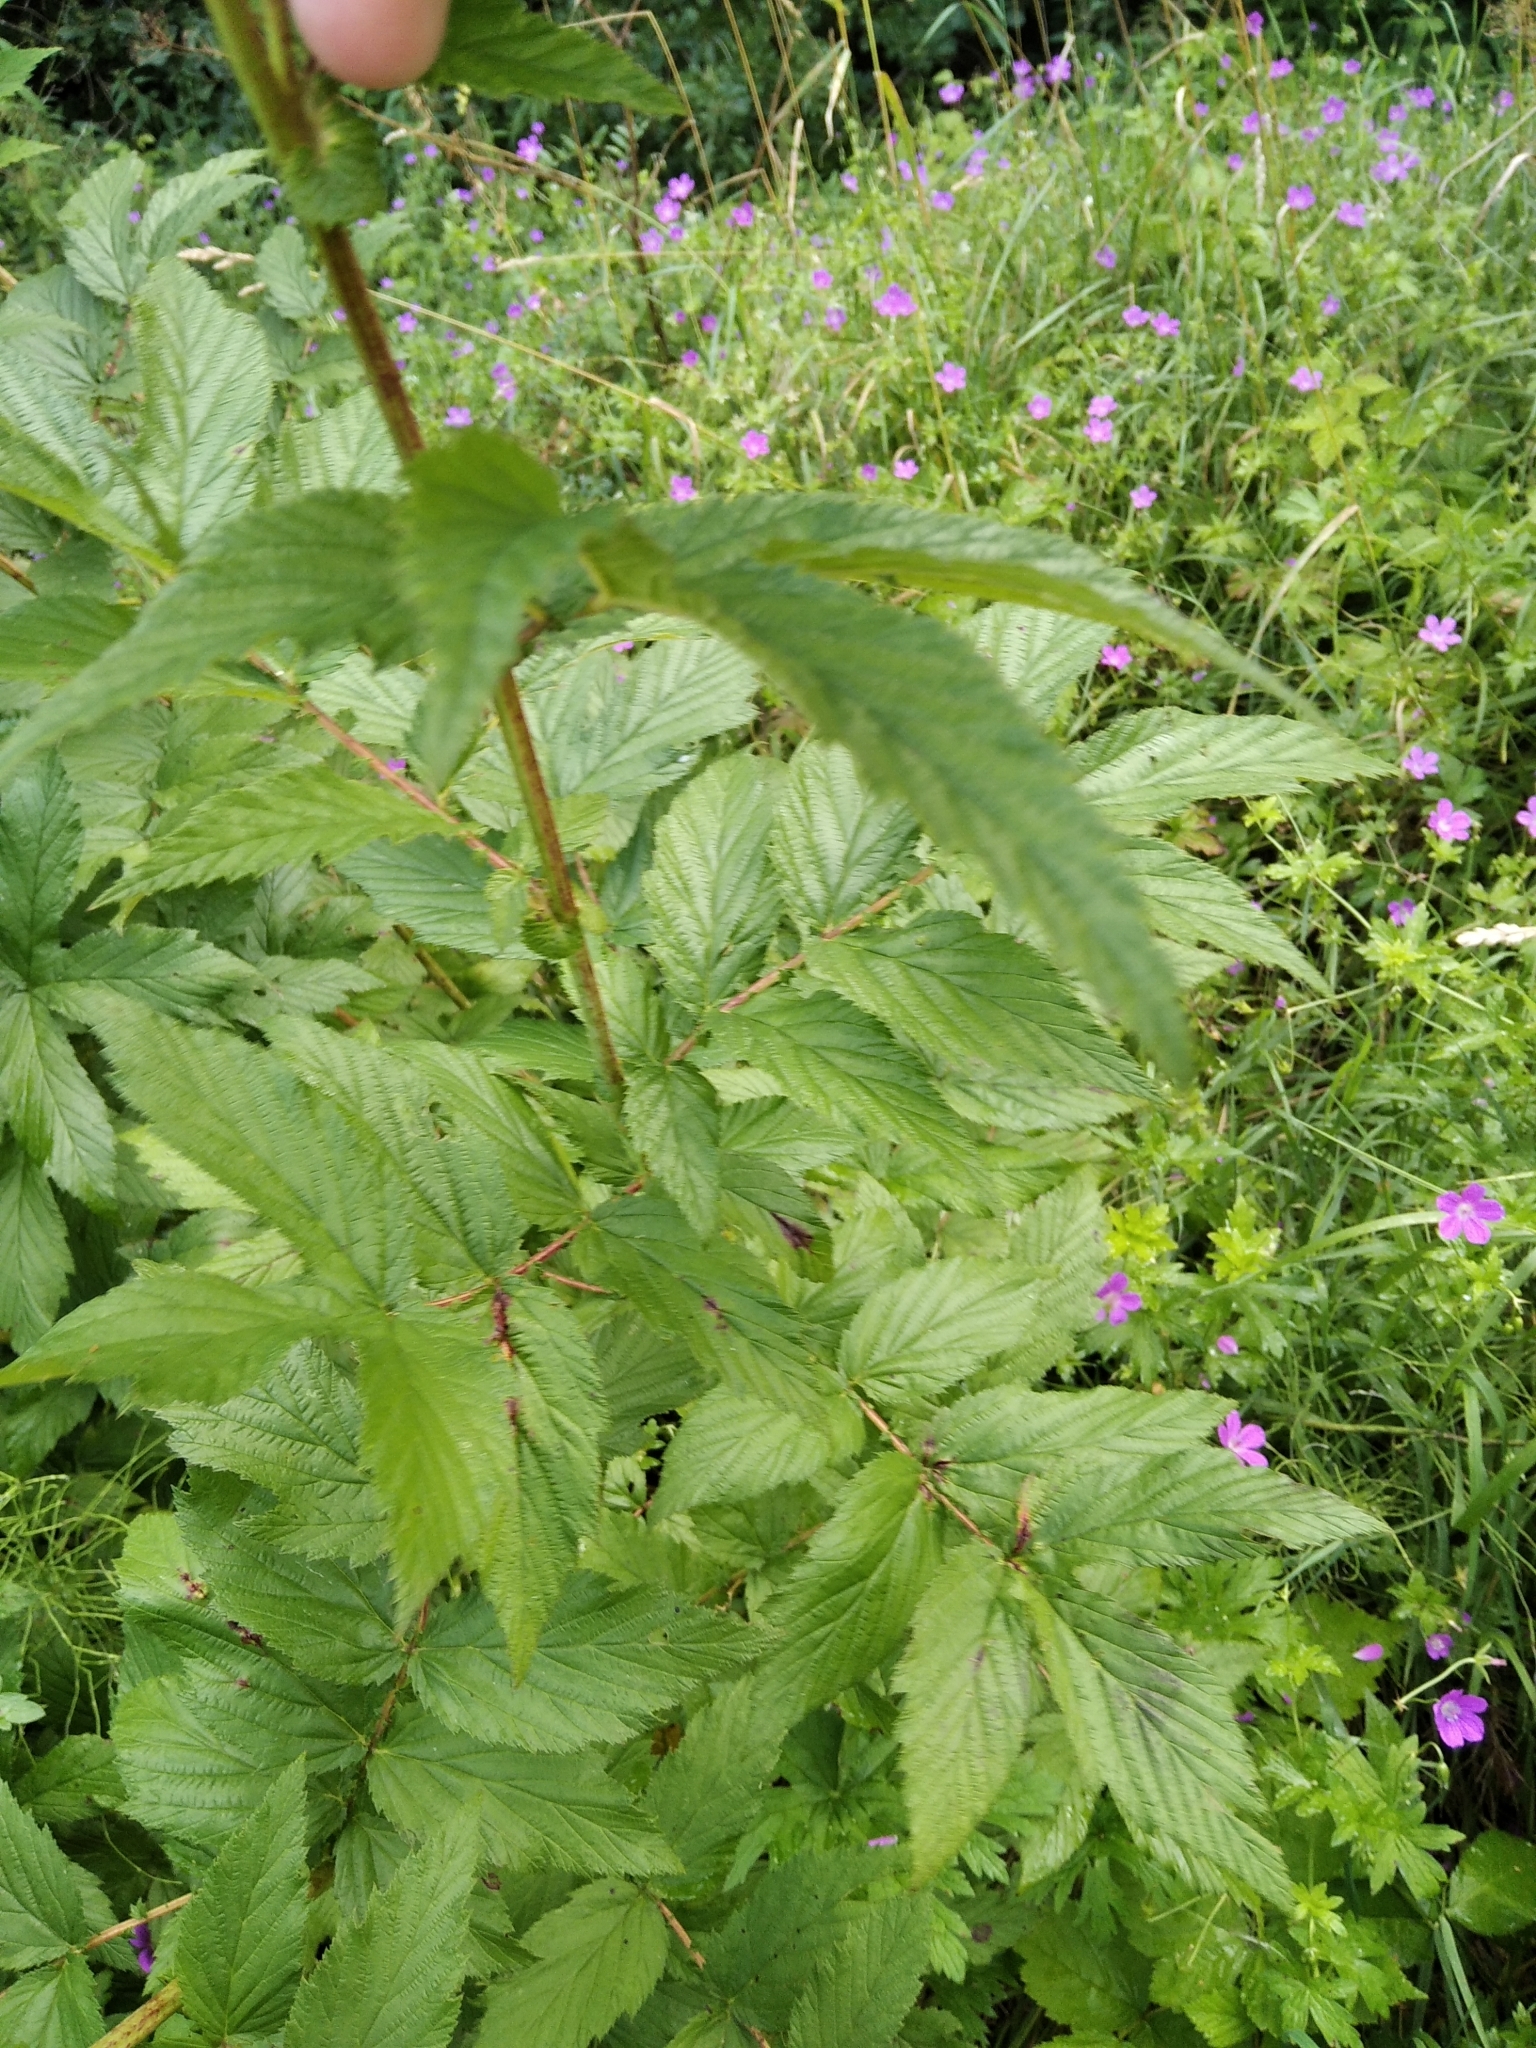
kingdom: Plantae
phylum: Tracheophyta
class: Magnoliopsida
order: Rosales
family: Rosaceae
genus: Filipendula
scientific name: Filipendula ulmaria
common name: Meadowsweet
